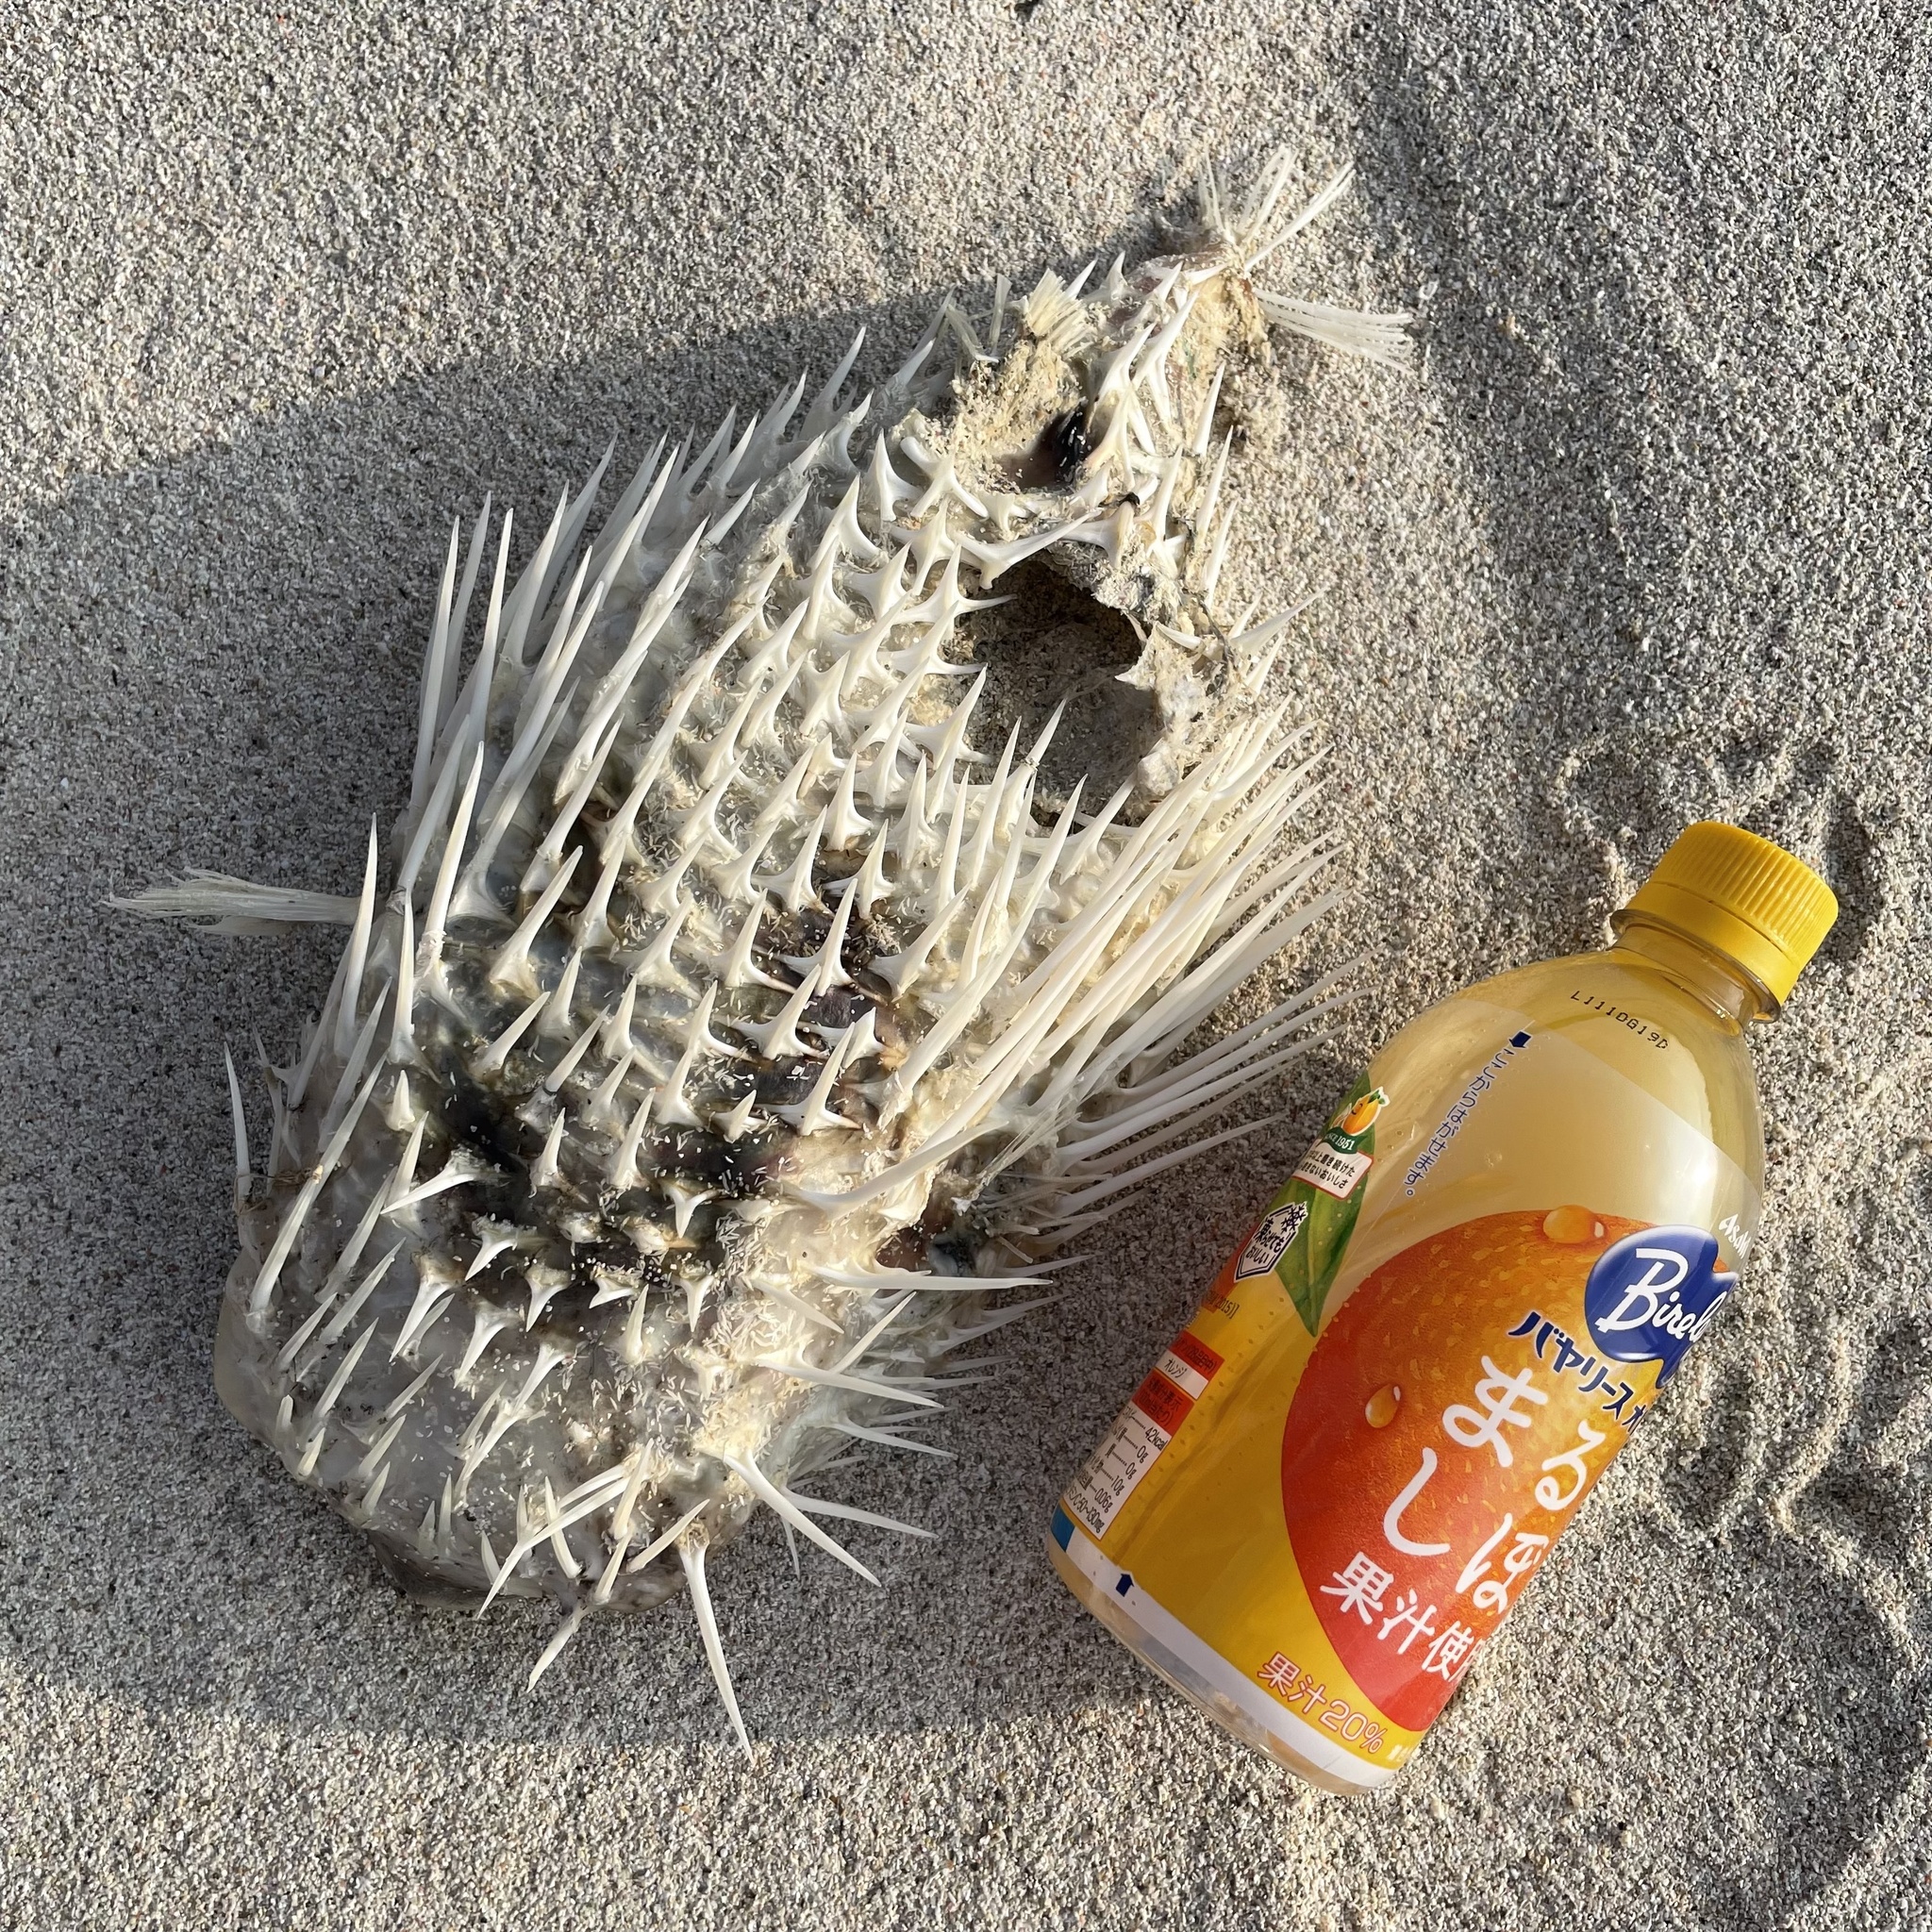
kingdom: Animalia
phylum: Chordata
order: Tetraodontiformes
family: Diodontidae
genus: Diodon
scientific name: Diodon holocanthus
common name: Balloonfish
